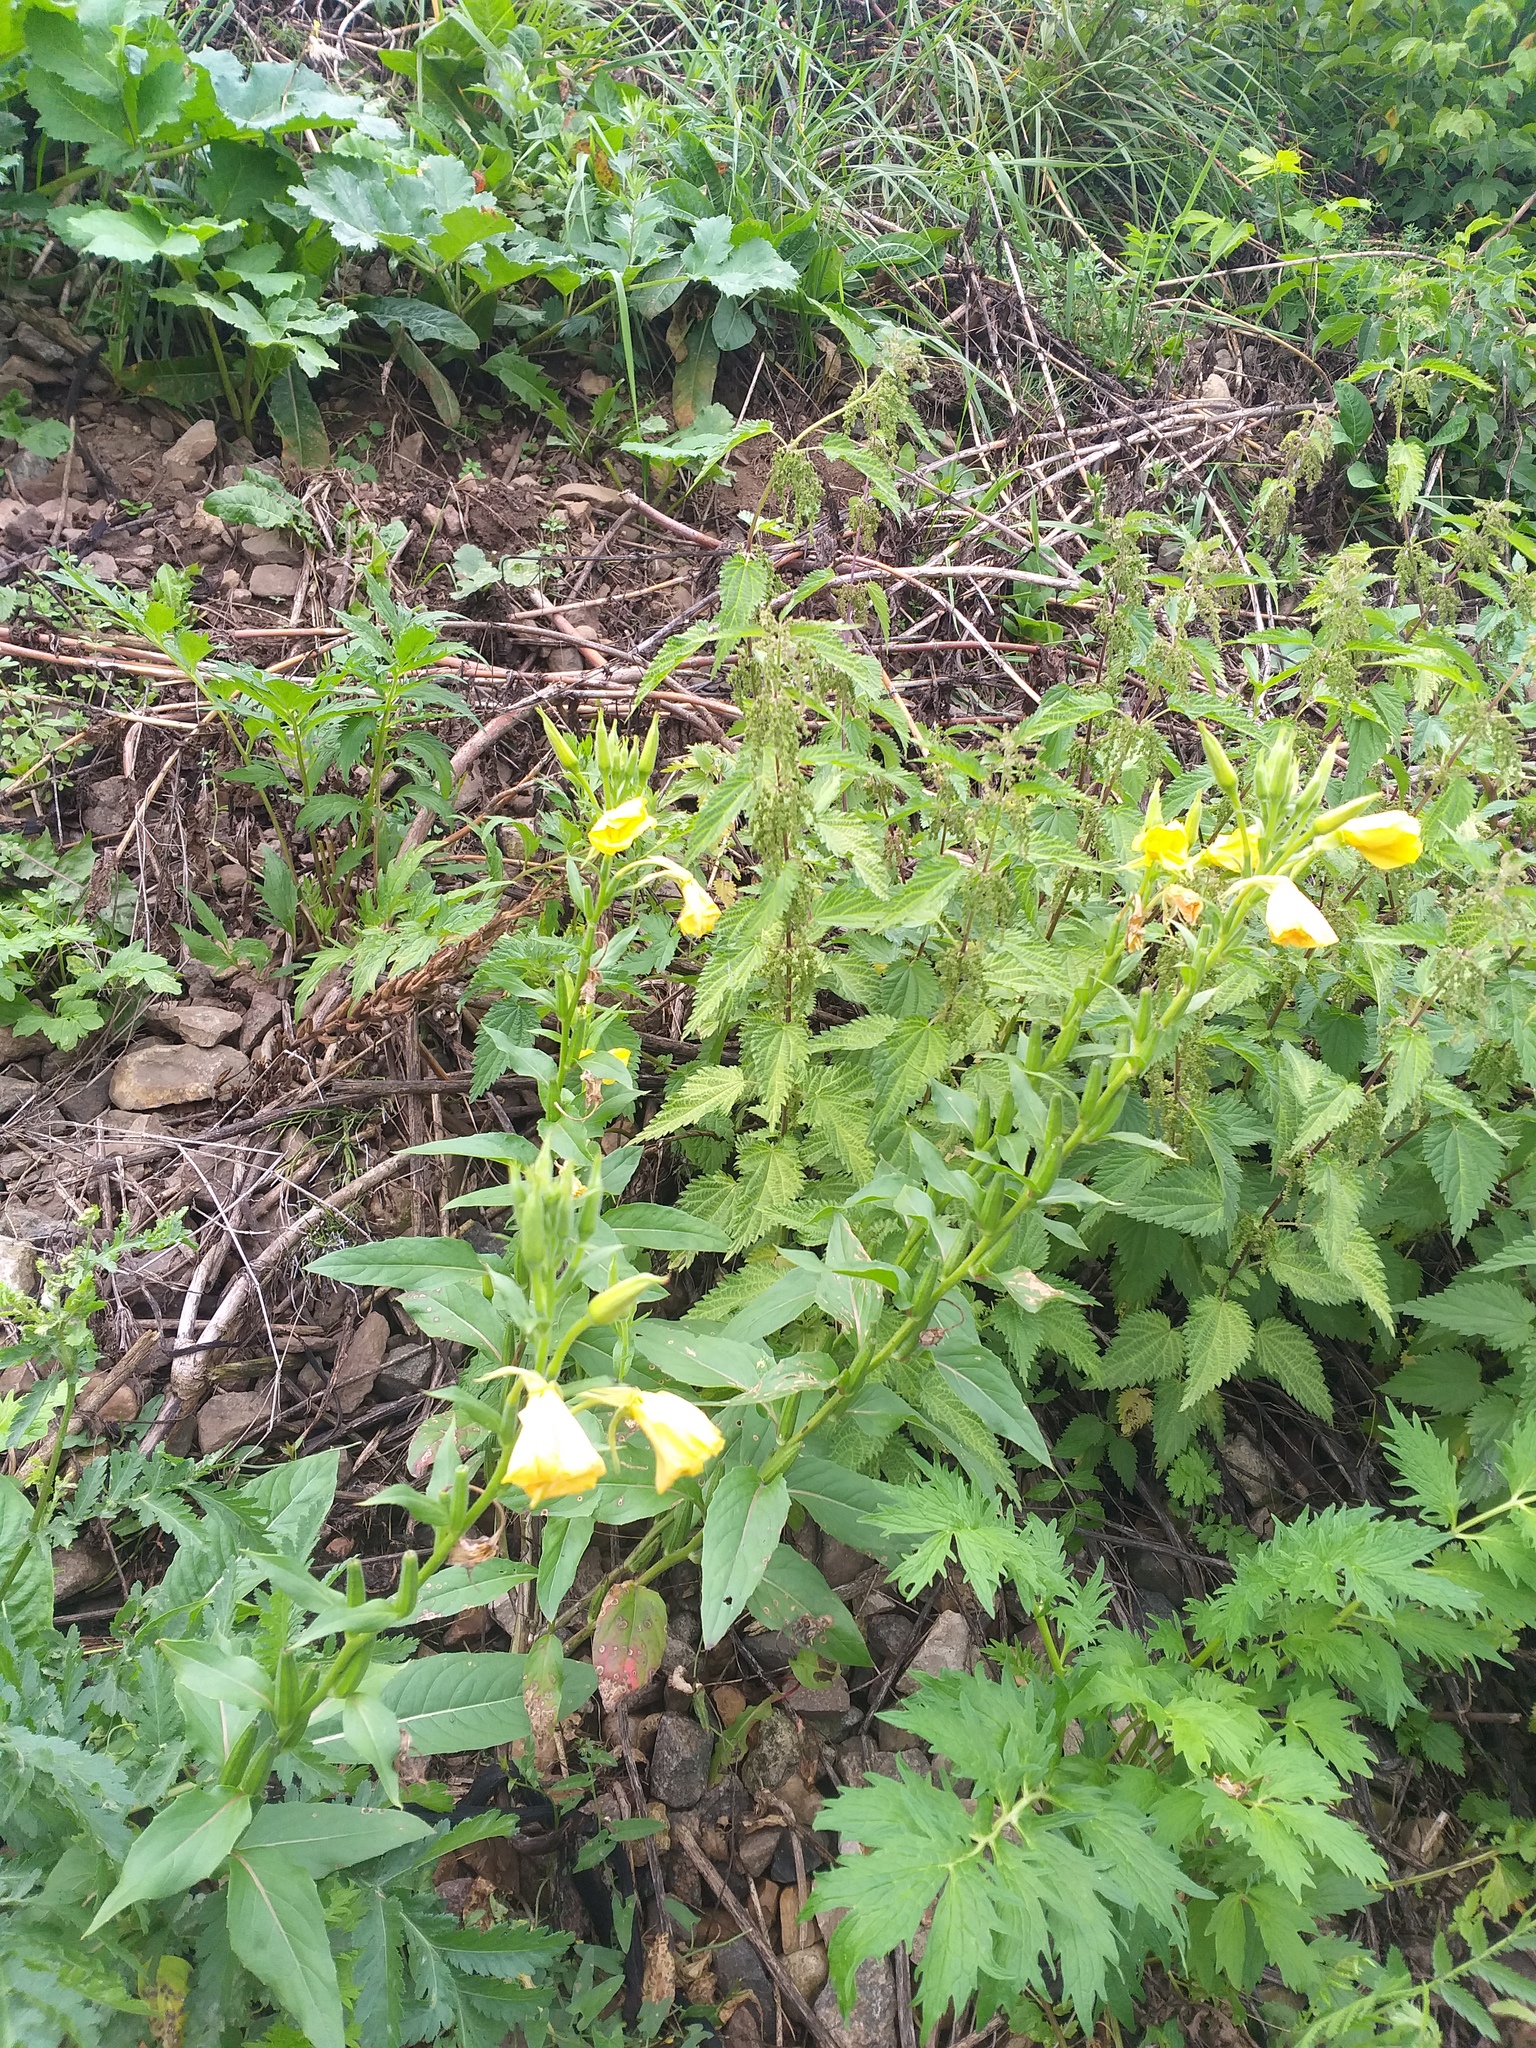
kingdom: Plantae
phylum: Tracheophyta
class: Magnoliopsida
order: Myrtales
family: Onagraceae
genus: Oenothera
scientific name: Oenothera biennis
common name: Common evening-primrose
